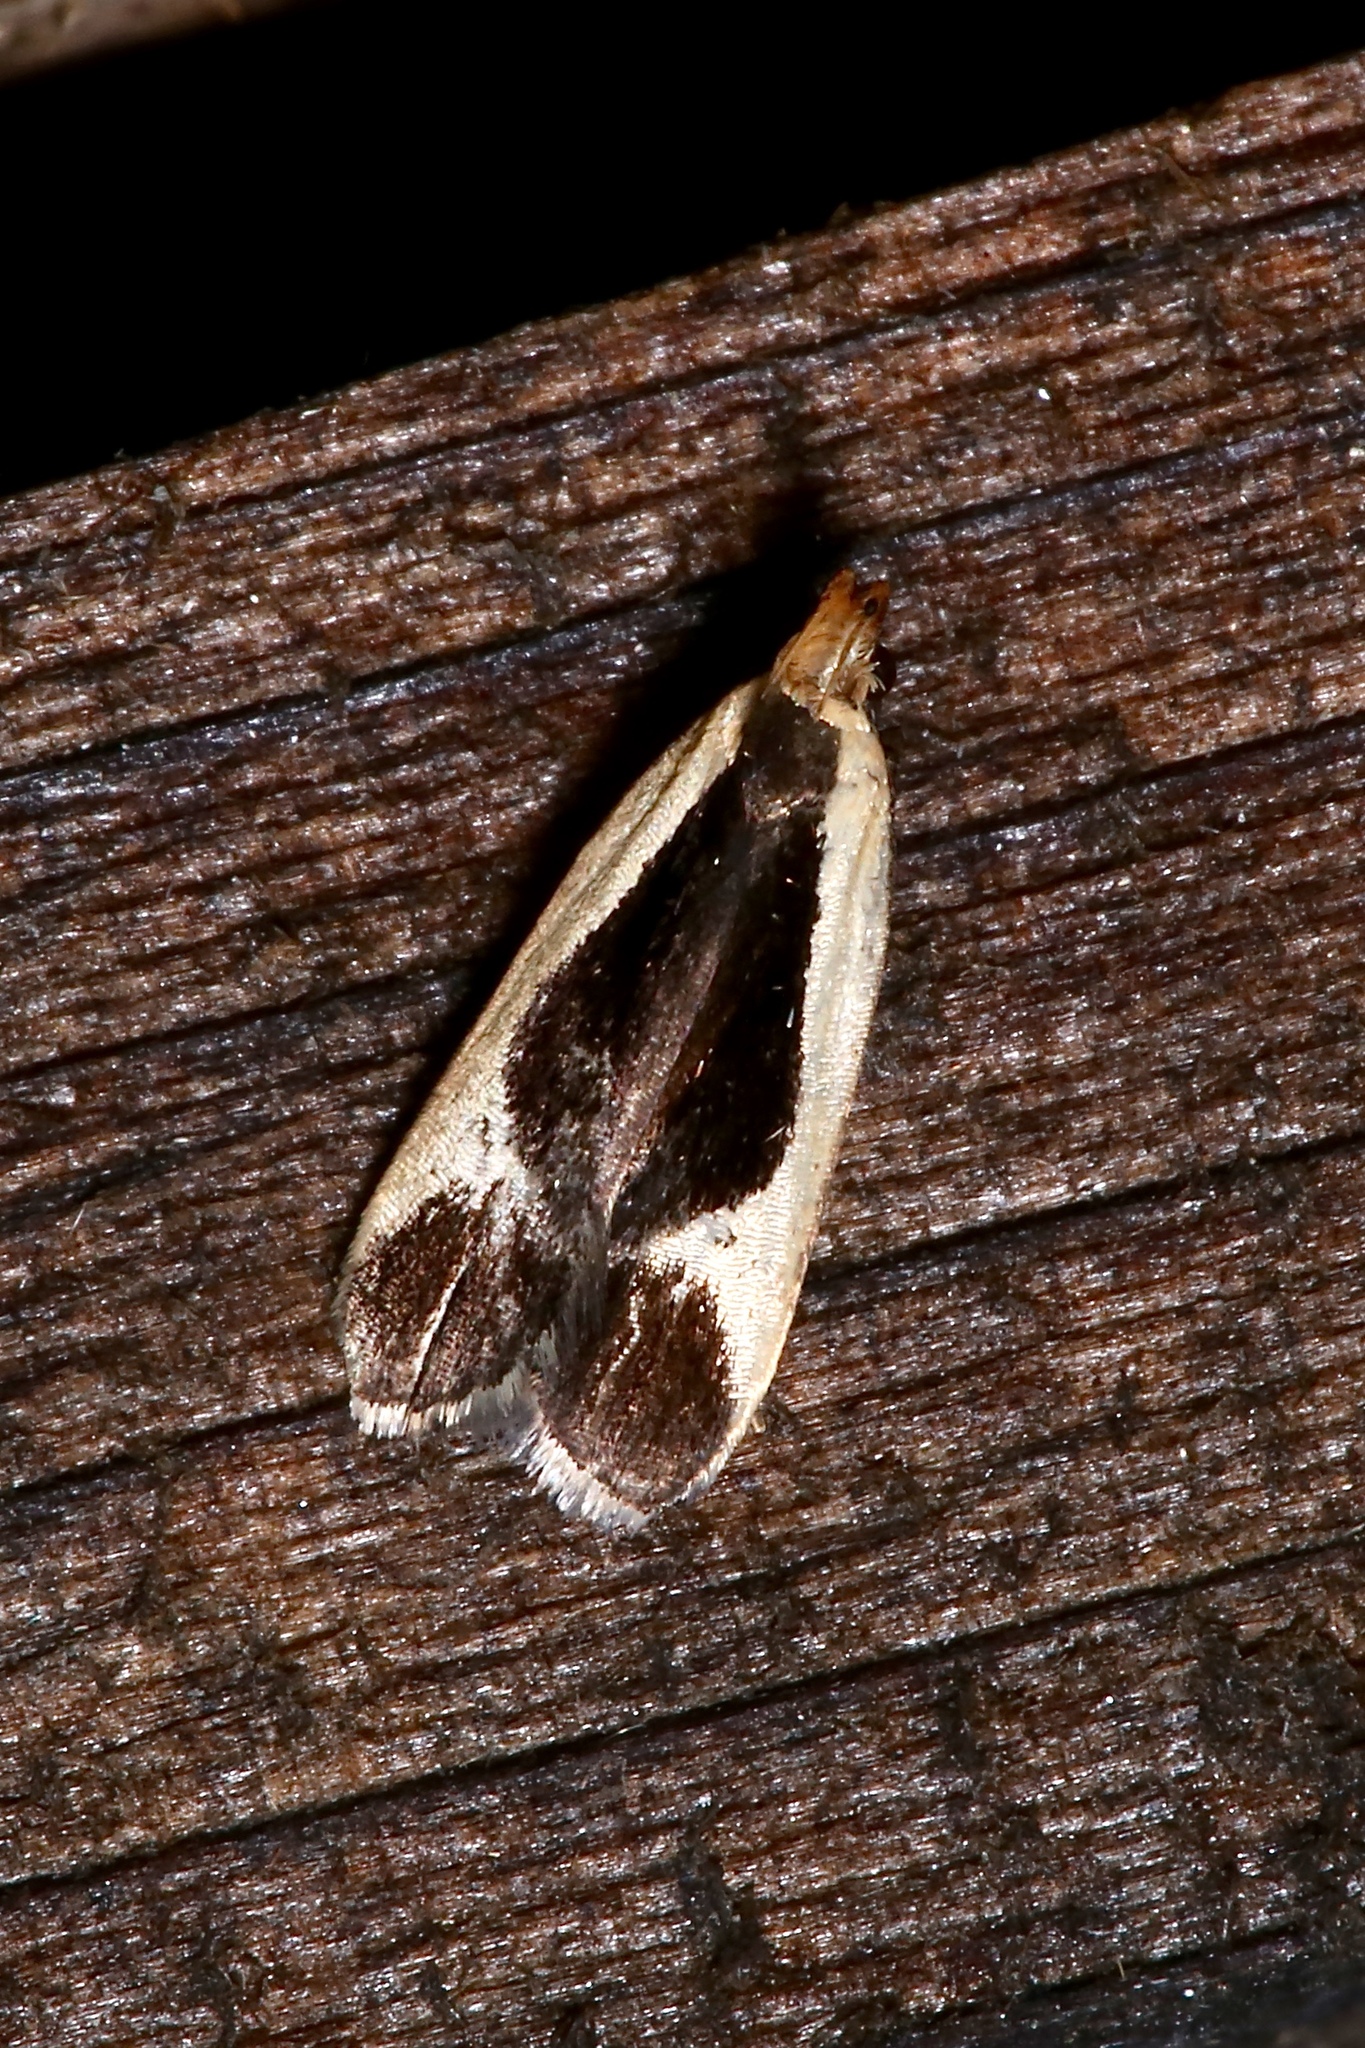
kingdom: Animalia
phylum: Arthropoda
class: Insecta
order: Lepidoptera
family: Gelechiidae
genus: Dichomeris
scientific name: Dichomeris flavocostella
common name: Cream-edged dichomeris moth
